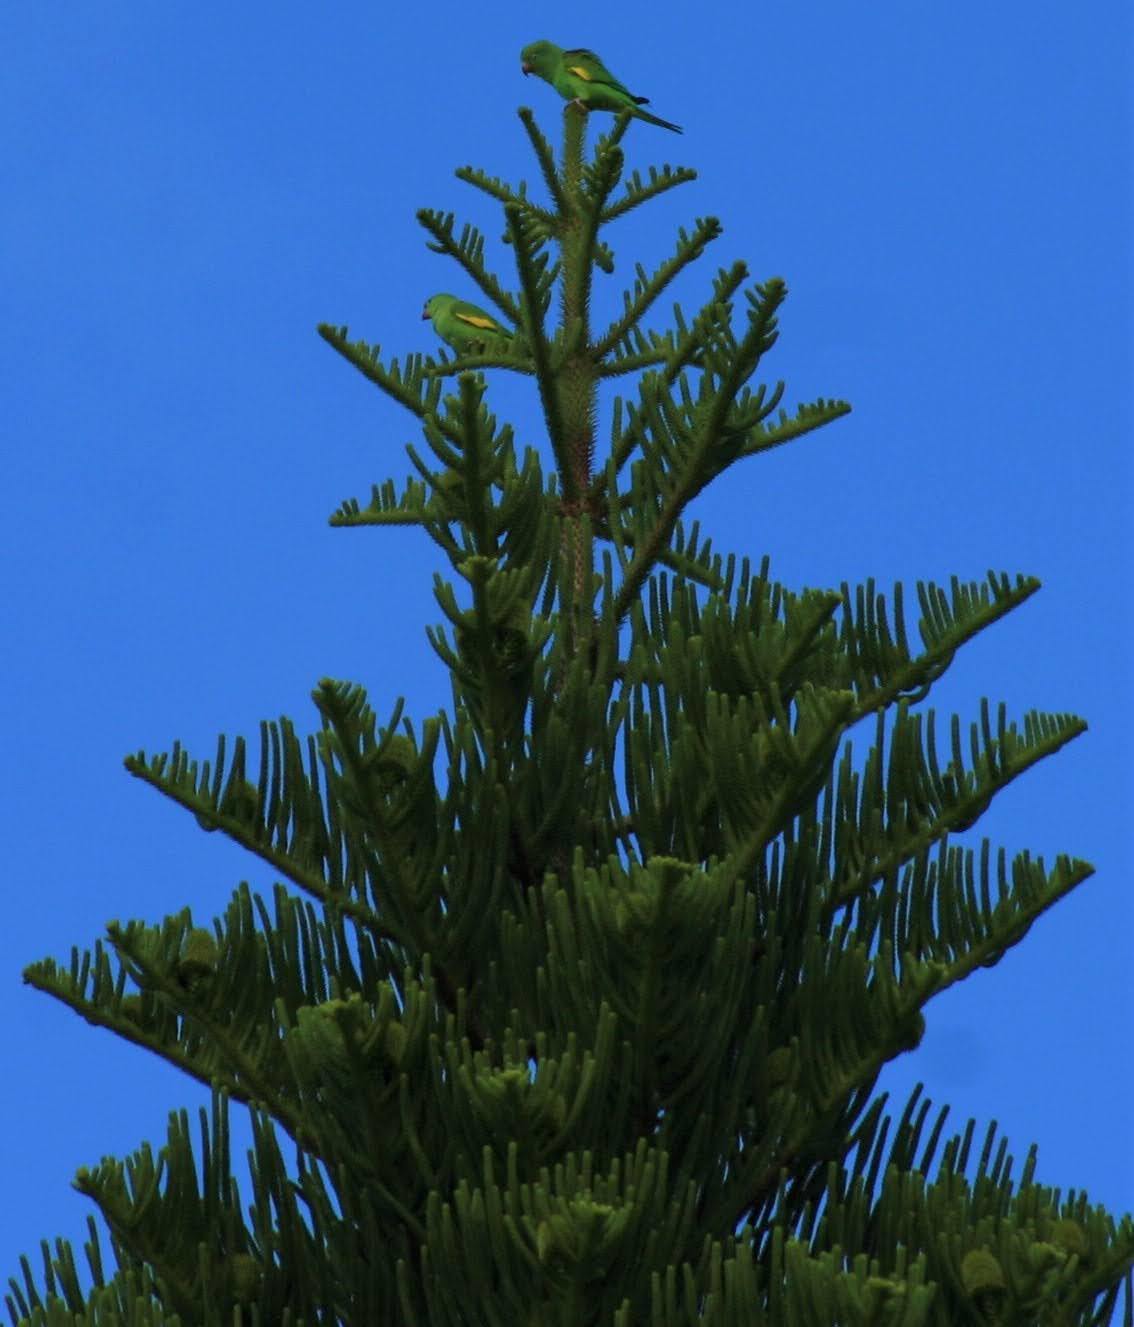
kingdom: Animalia
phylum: Chordata
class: Aves
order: Psittaciformes
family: Psittacidae
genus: Brotogeris
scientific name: Brotogeris chiriri
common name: Yellow-chevroned parakeet
